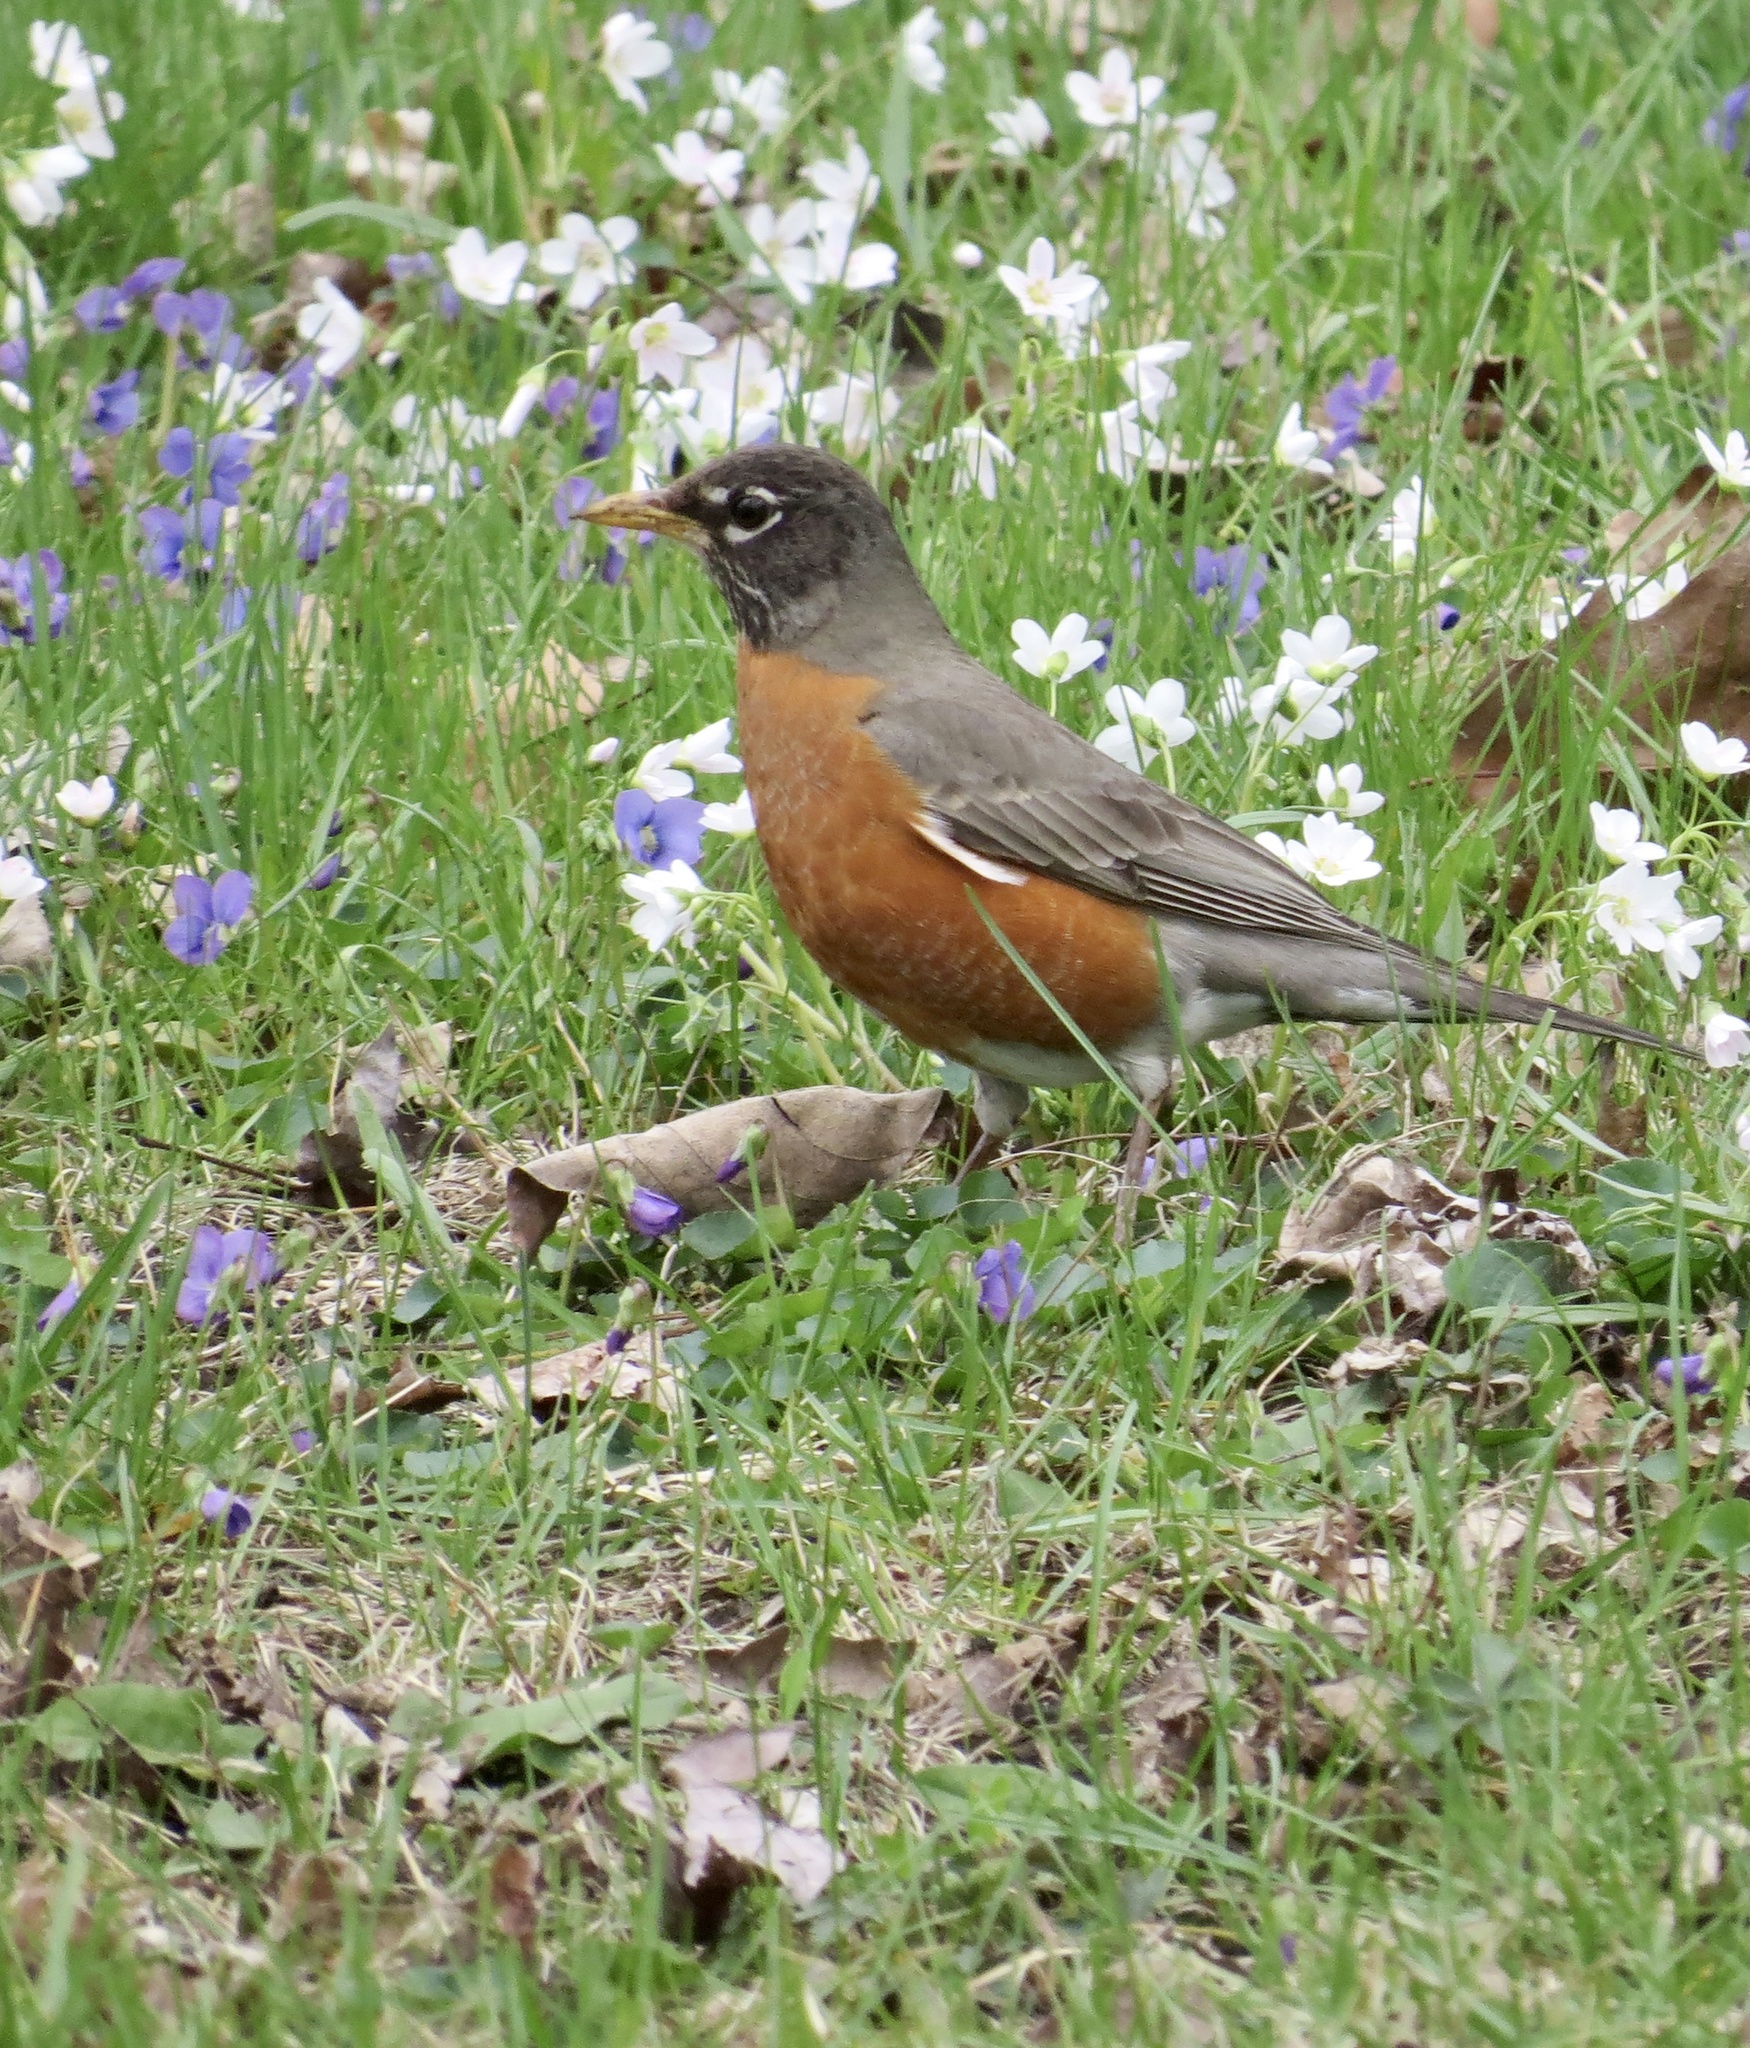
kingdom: Animalia
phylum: Chordata
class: Aves
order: Passeriformes
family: Turdidae
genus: Turdus
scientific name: Turdus migratorius
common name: American robin
